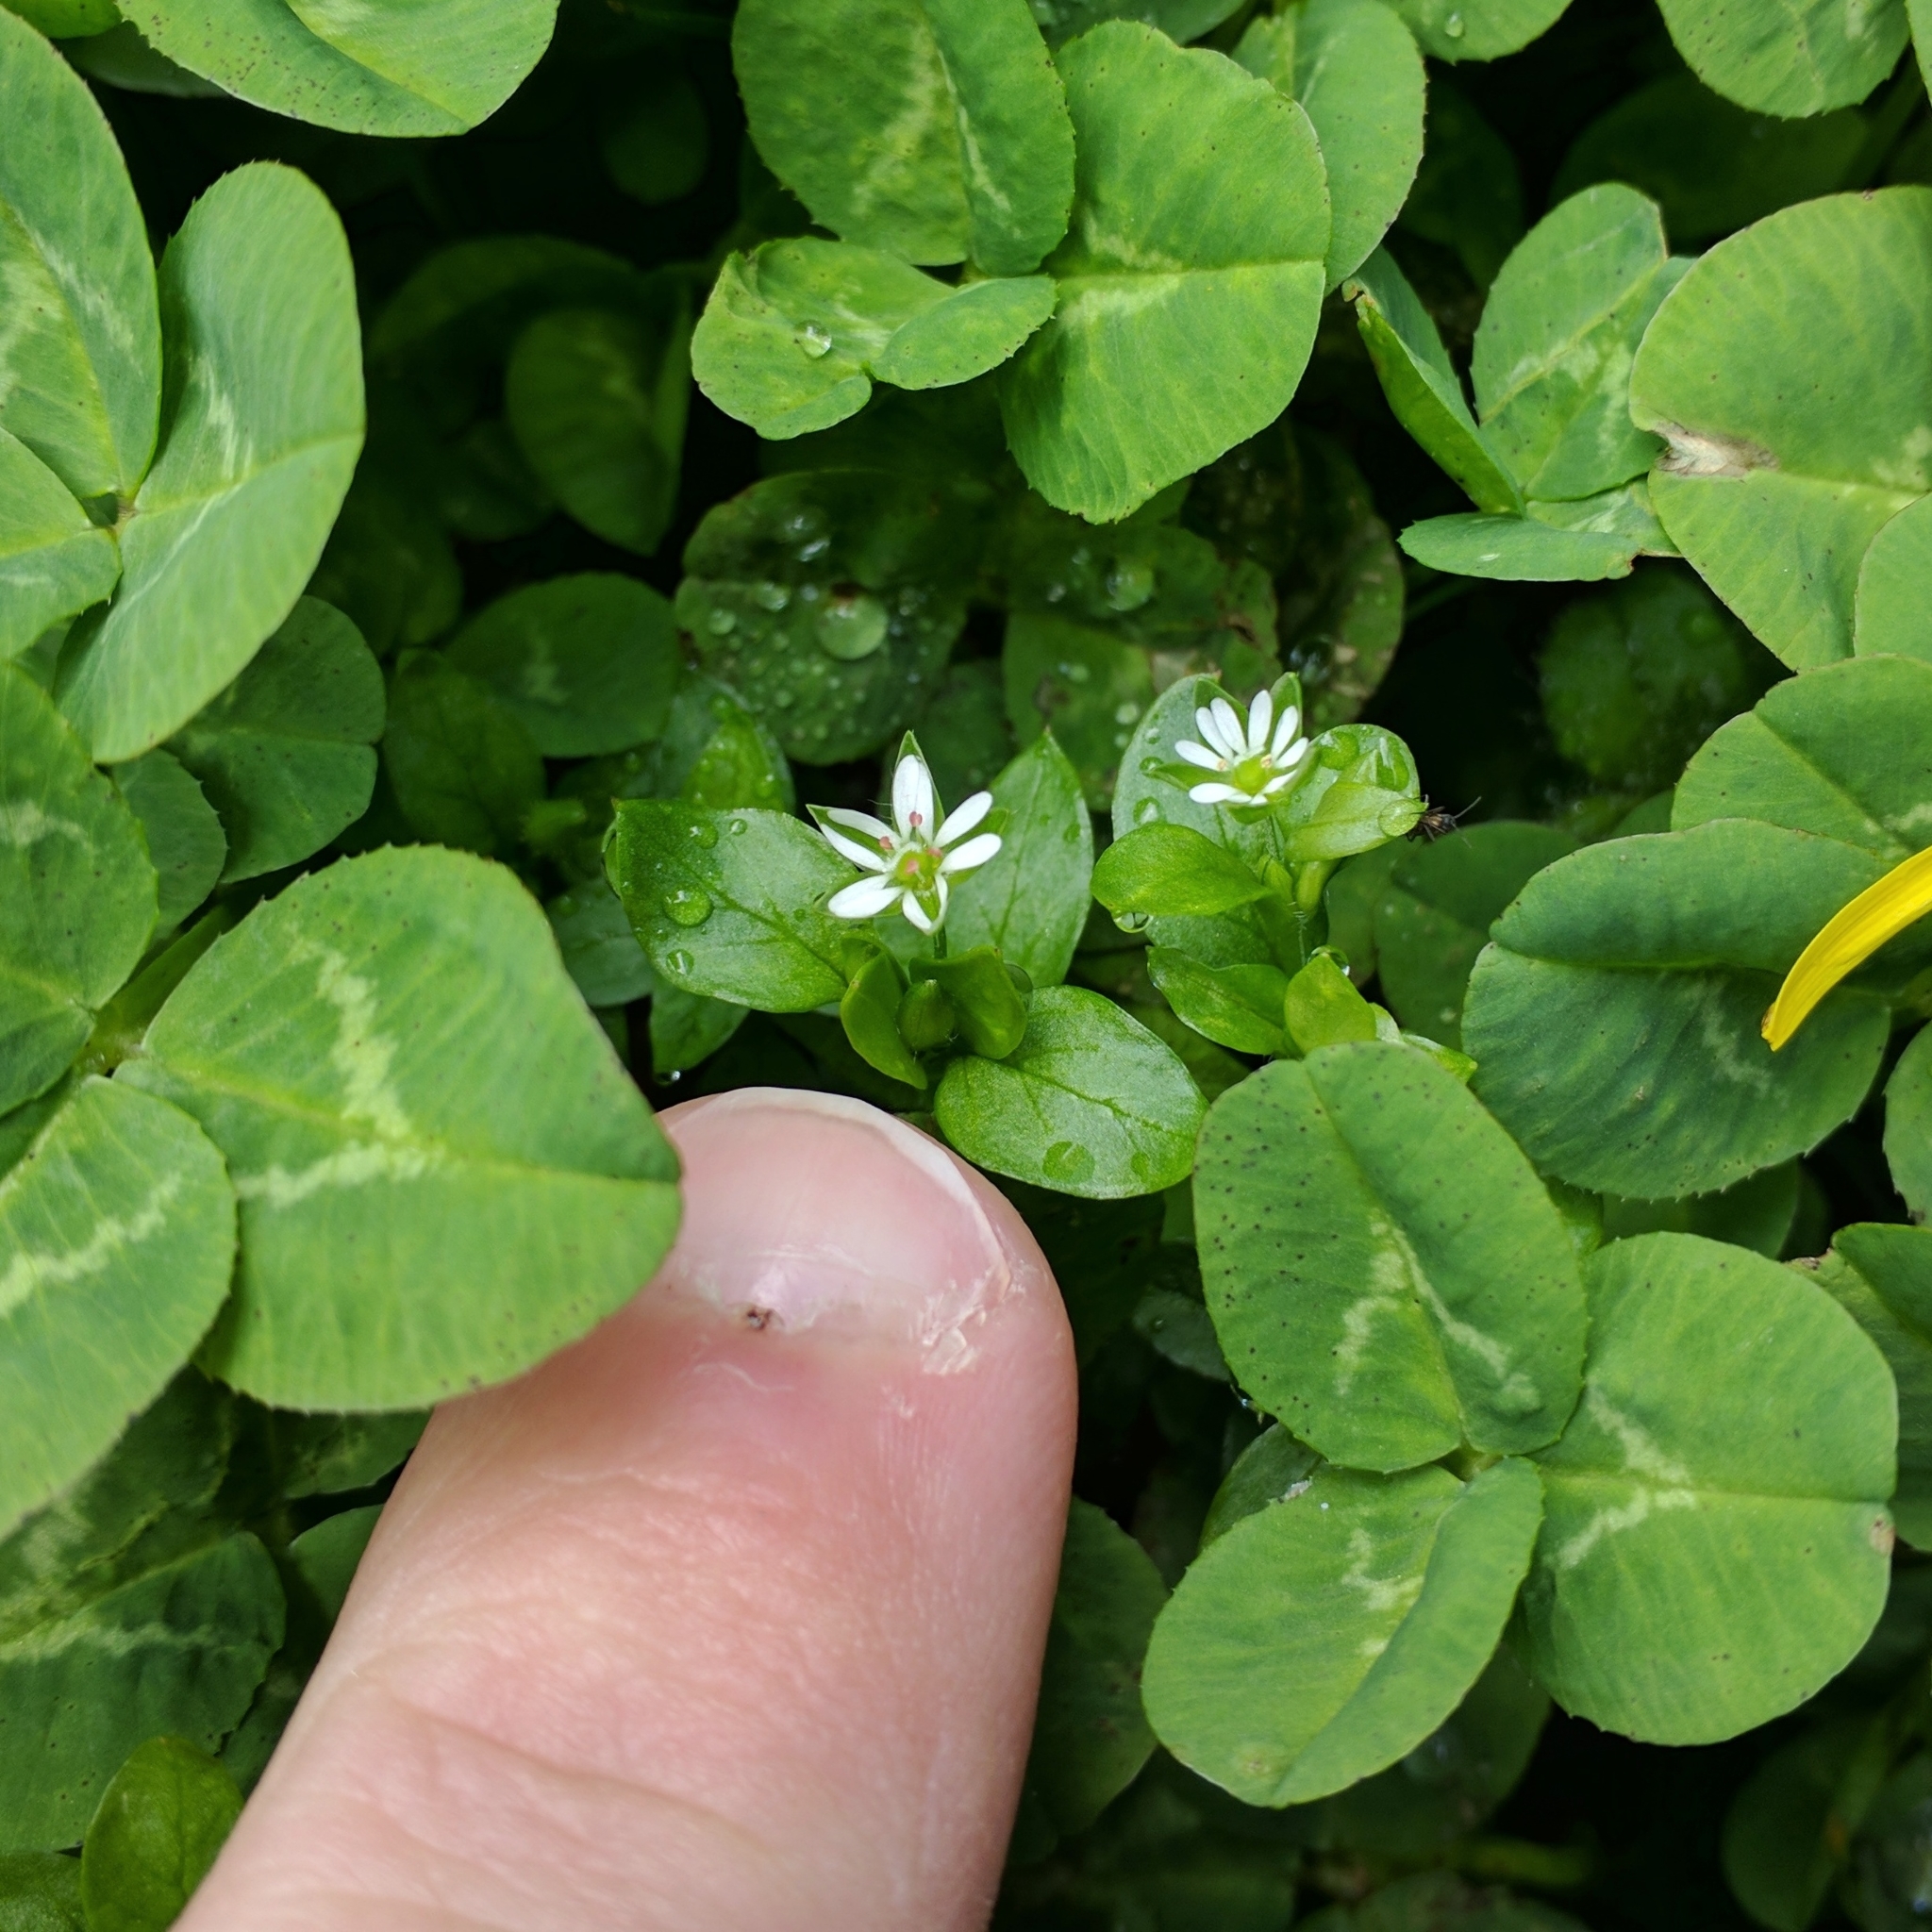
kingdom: Plantae
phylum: Tracheophyta
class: Magnoliopsida
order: Caryophyllales
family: Caryophyllaceae
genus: Stellaria
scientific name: Stellaria media
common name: Common chickweed
